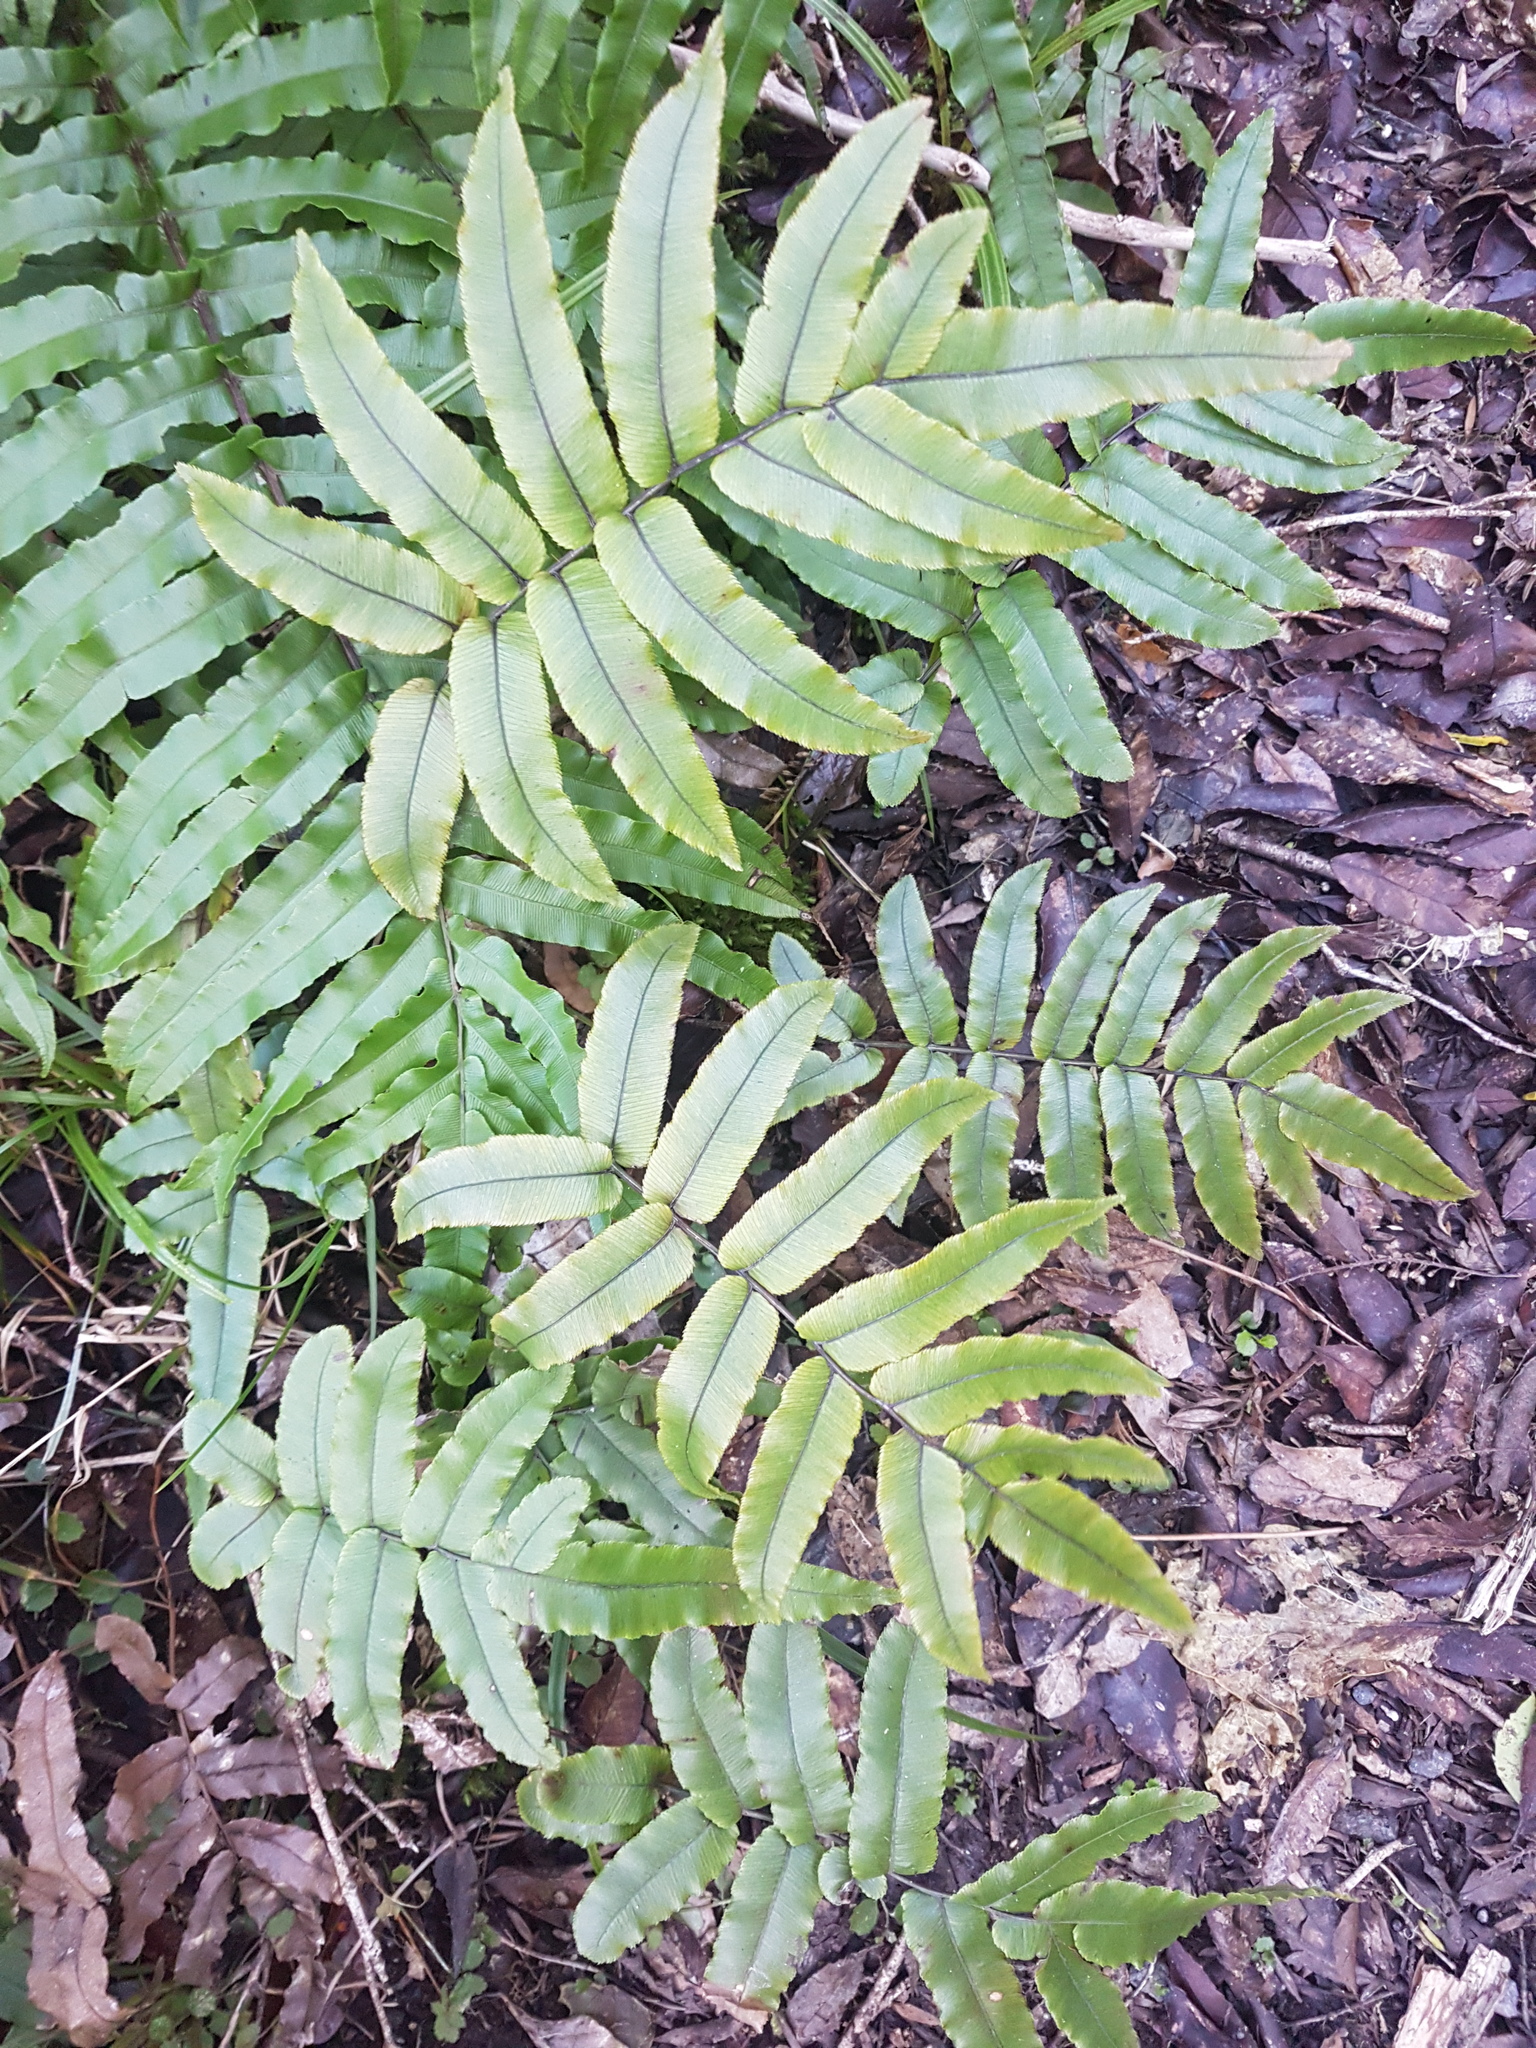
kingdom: Plantae
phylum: Tracheophyta
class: Polypodiopsida
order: Polypodiales
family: Blechnaceae
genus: Parablechnum
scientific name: Parablechnum procerum
